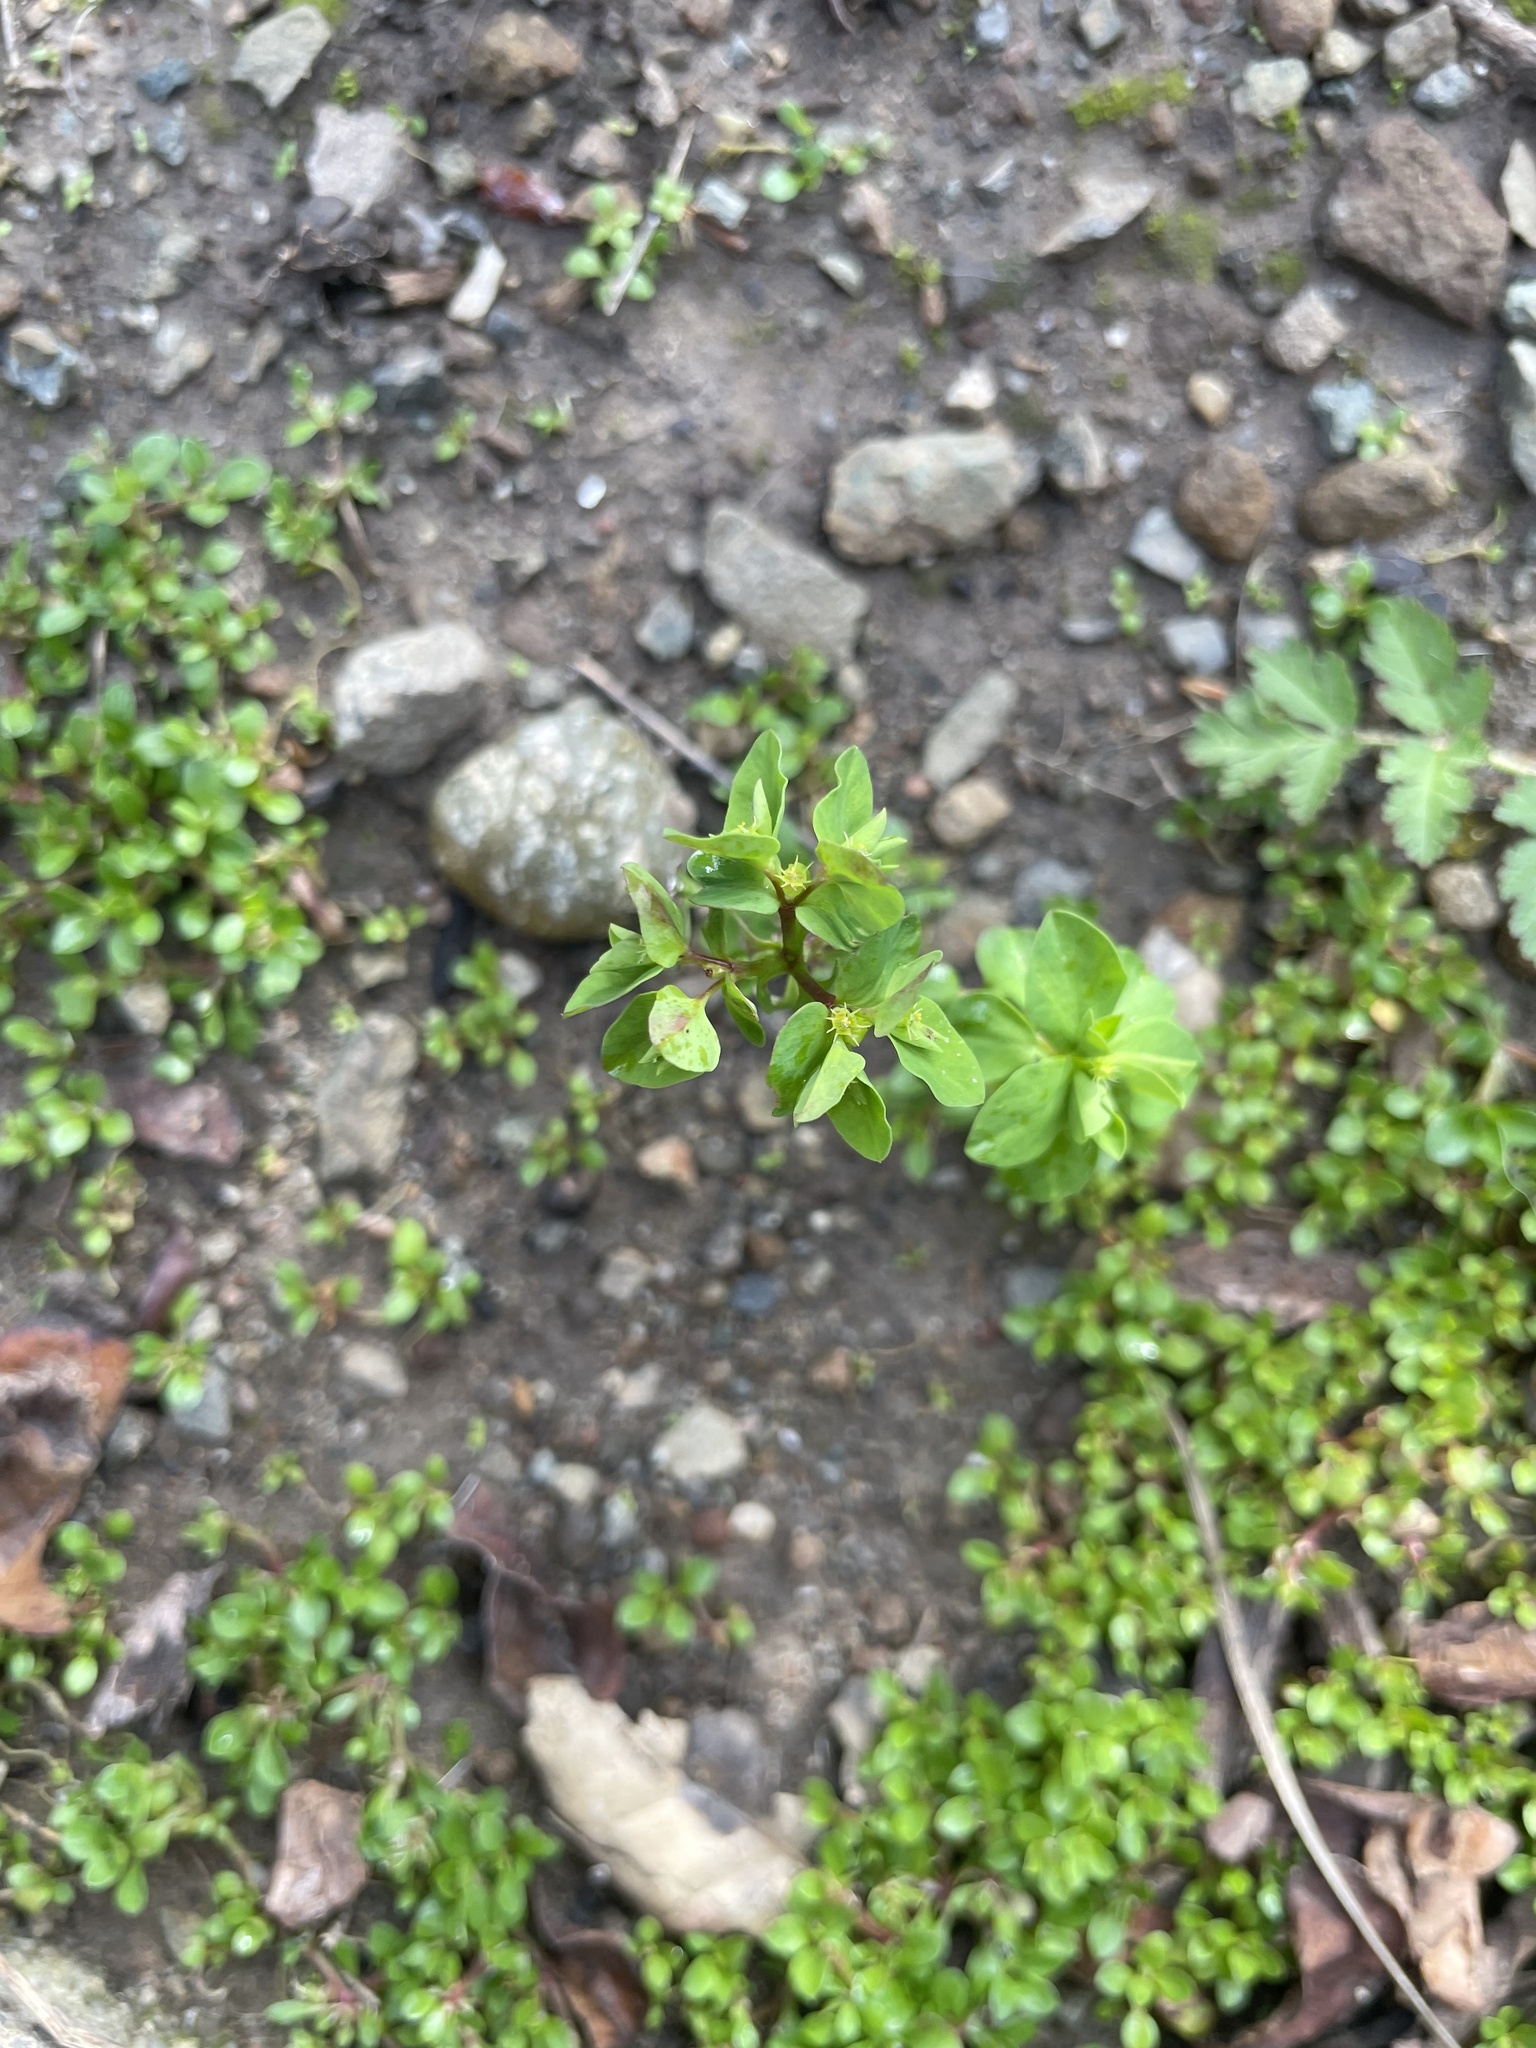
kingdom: Plantae
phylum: Tracheophyta
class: Magnoliopsida
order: Malpighiales
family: Euphorbiaceae
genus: Euphorbia
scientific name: Euphorbia peplus
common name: Petty spurge
